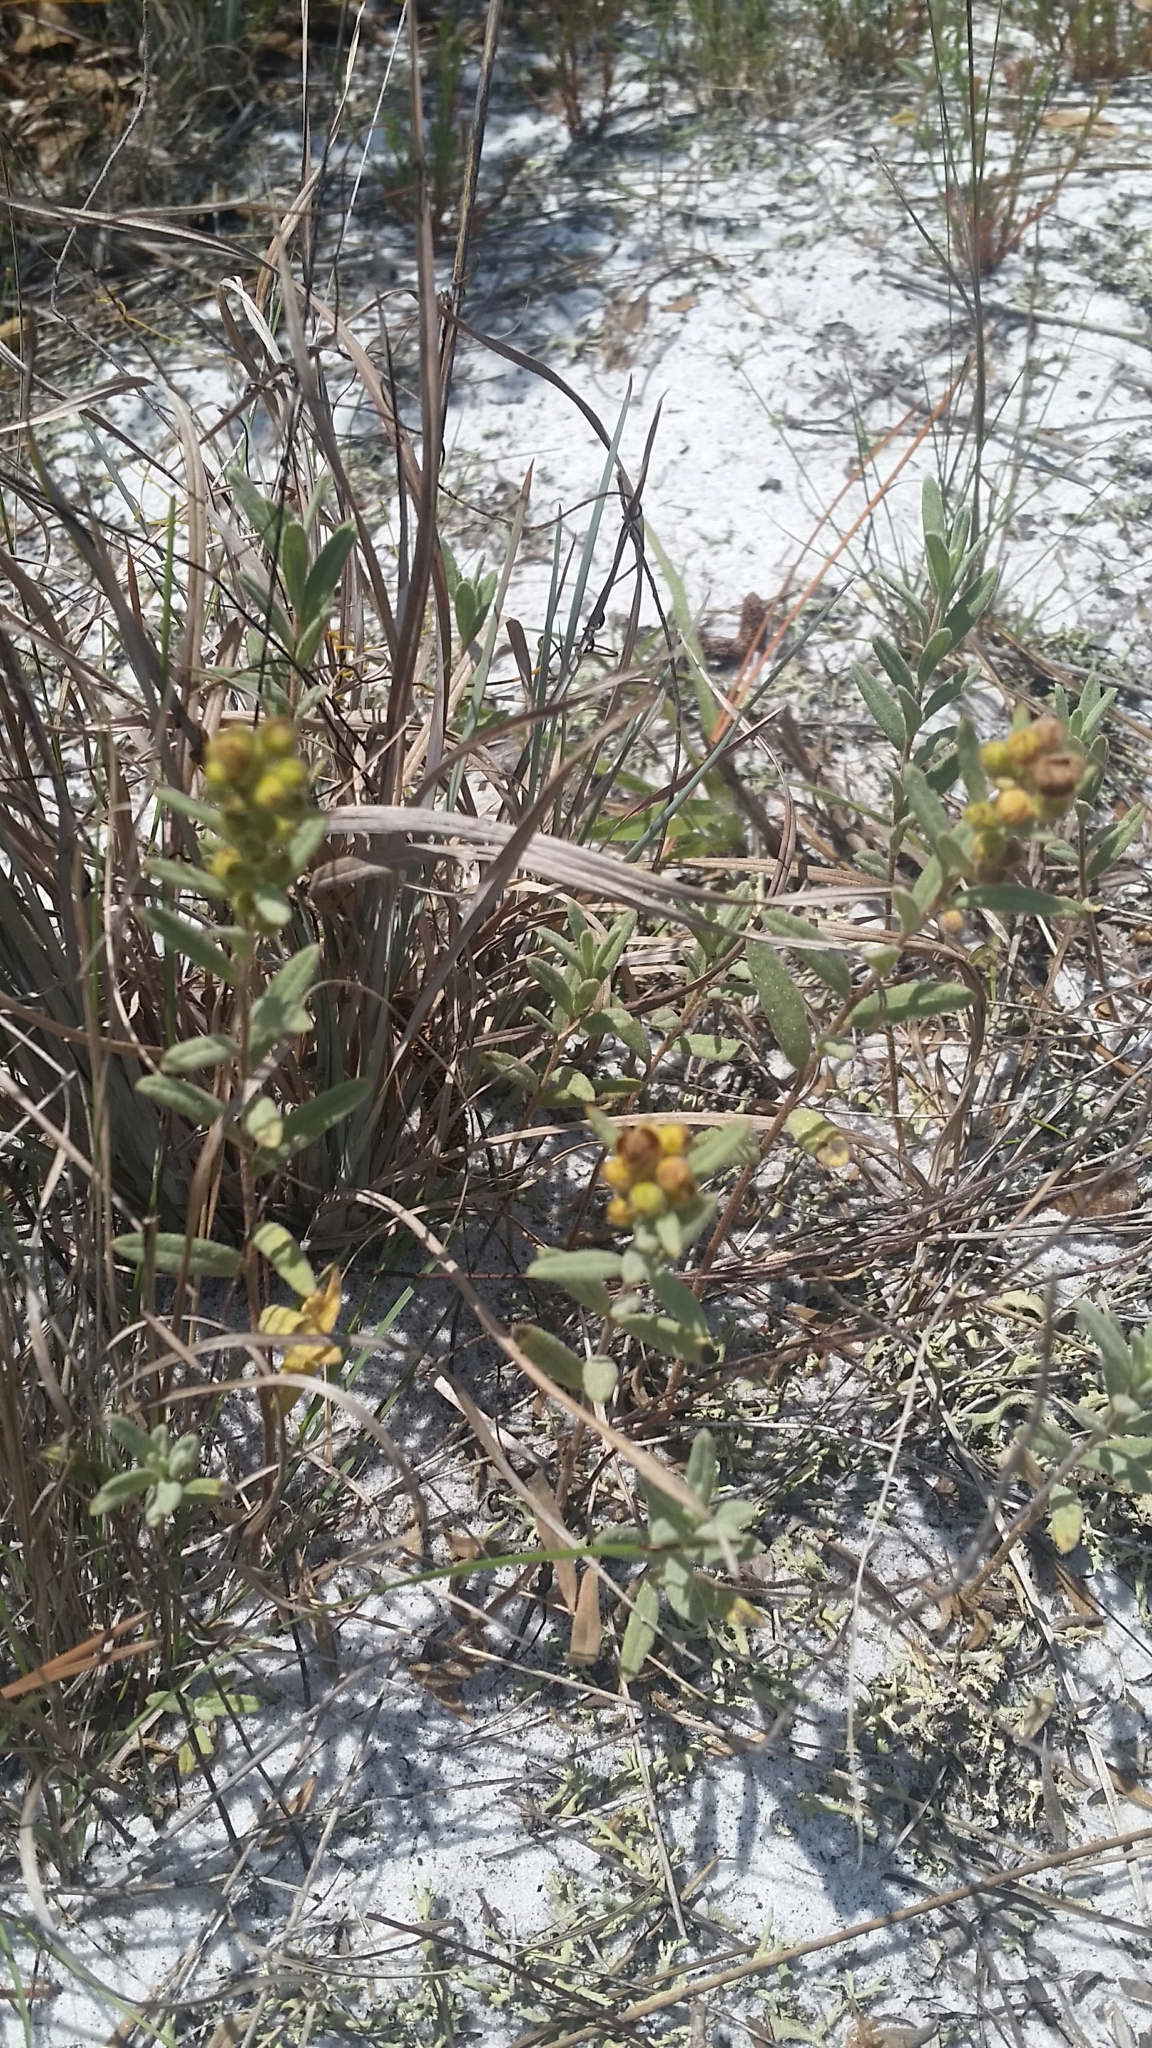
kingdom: Plantae
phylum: Tracheophyta
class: Magnoliopsida
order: Malvales
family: Cistaceae
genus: Crocanthemum
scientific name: Crocanthemum nashii
